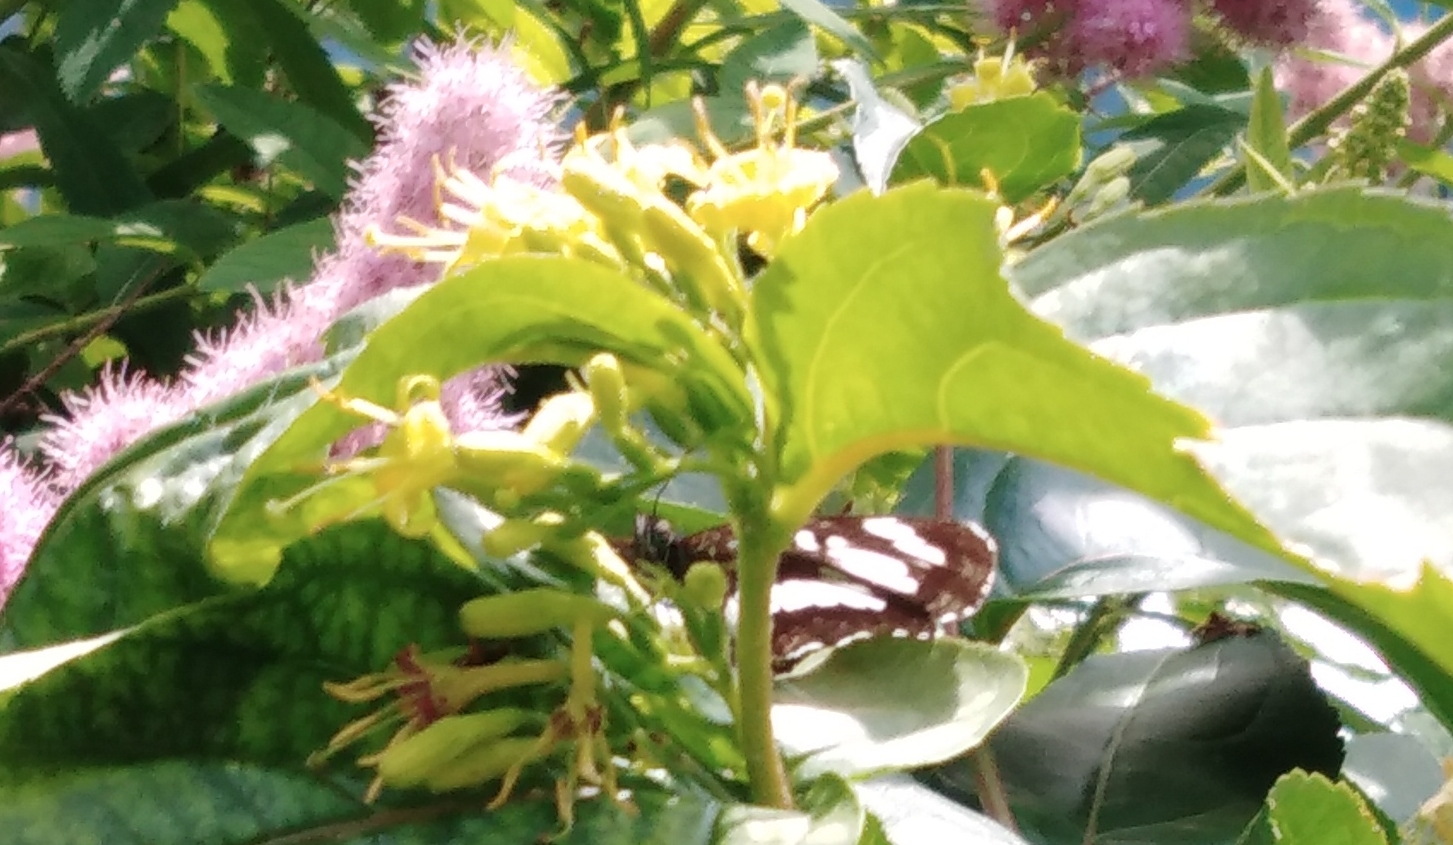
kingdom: Animalia
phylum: Arthropoda
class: Insecta
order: Lepidoptera
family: Nymphalidae
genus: Neptis
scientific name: Neptis rivularis
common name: Hungarian glider
